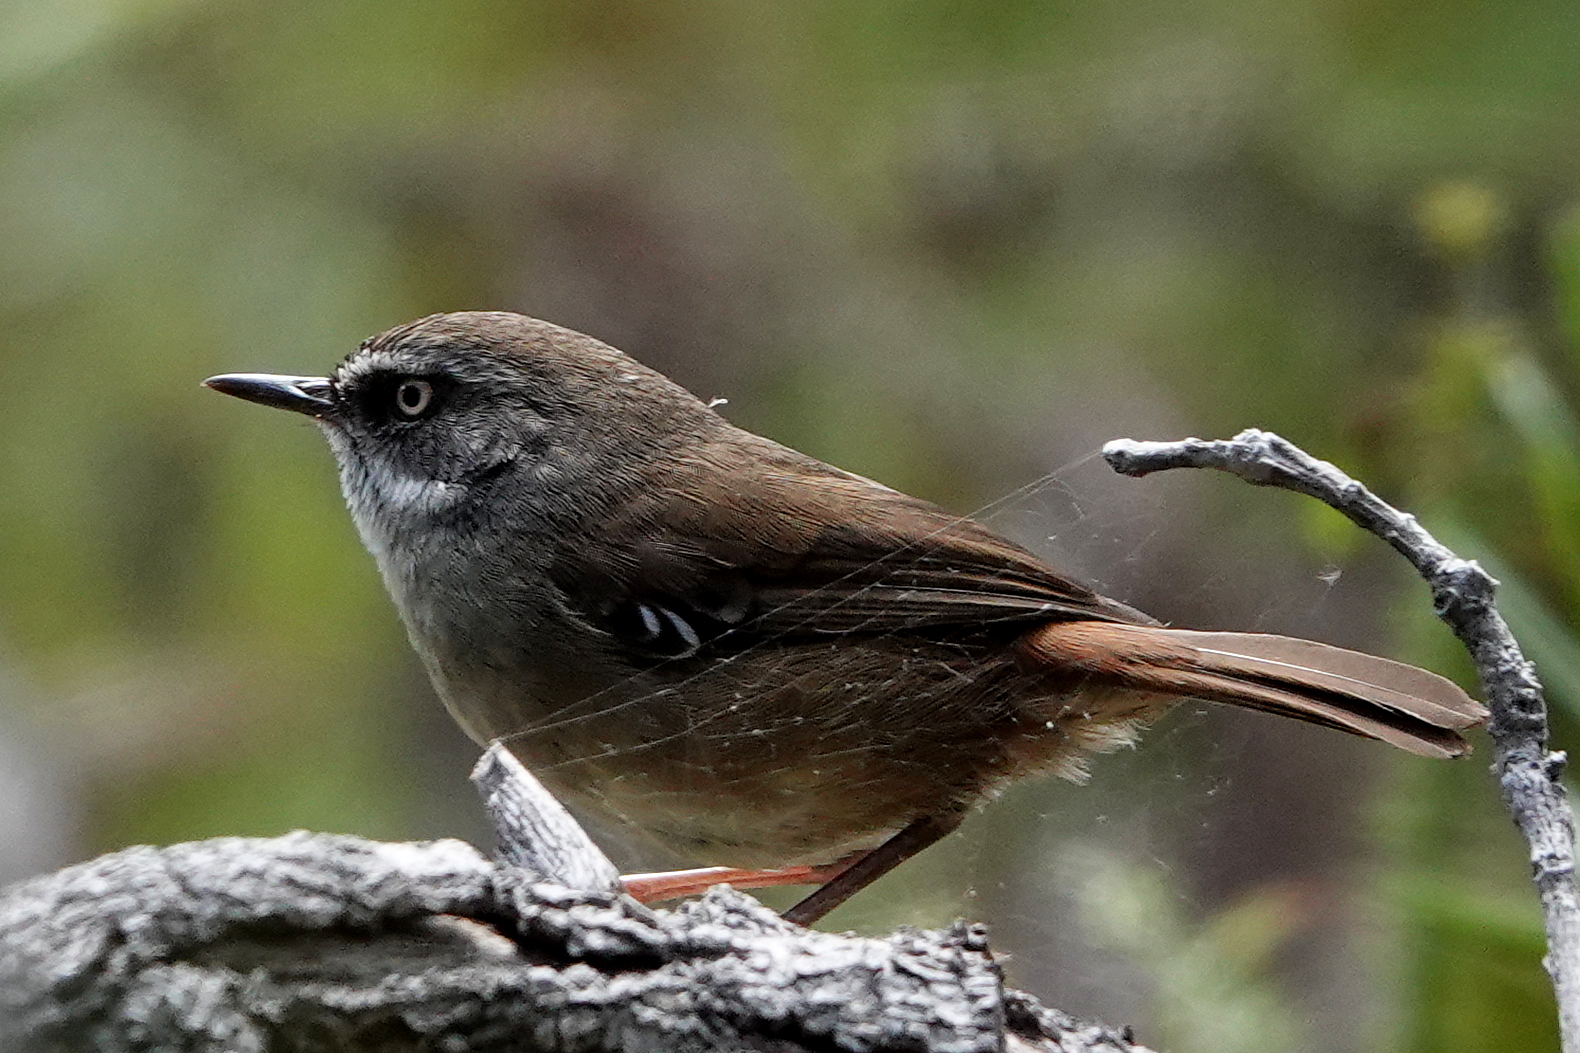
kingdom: Animalia
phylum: Chordata
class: Aves
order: Passeriformes
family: Acanthizidae
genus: Sericornis
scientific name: Sericornis frontalis
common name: White-browed scrubwren
